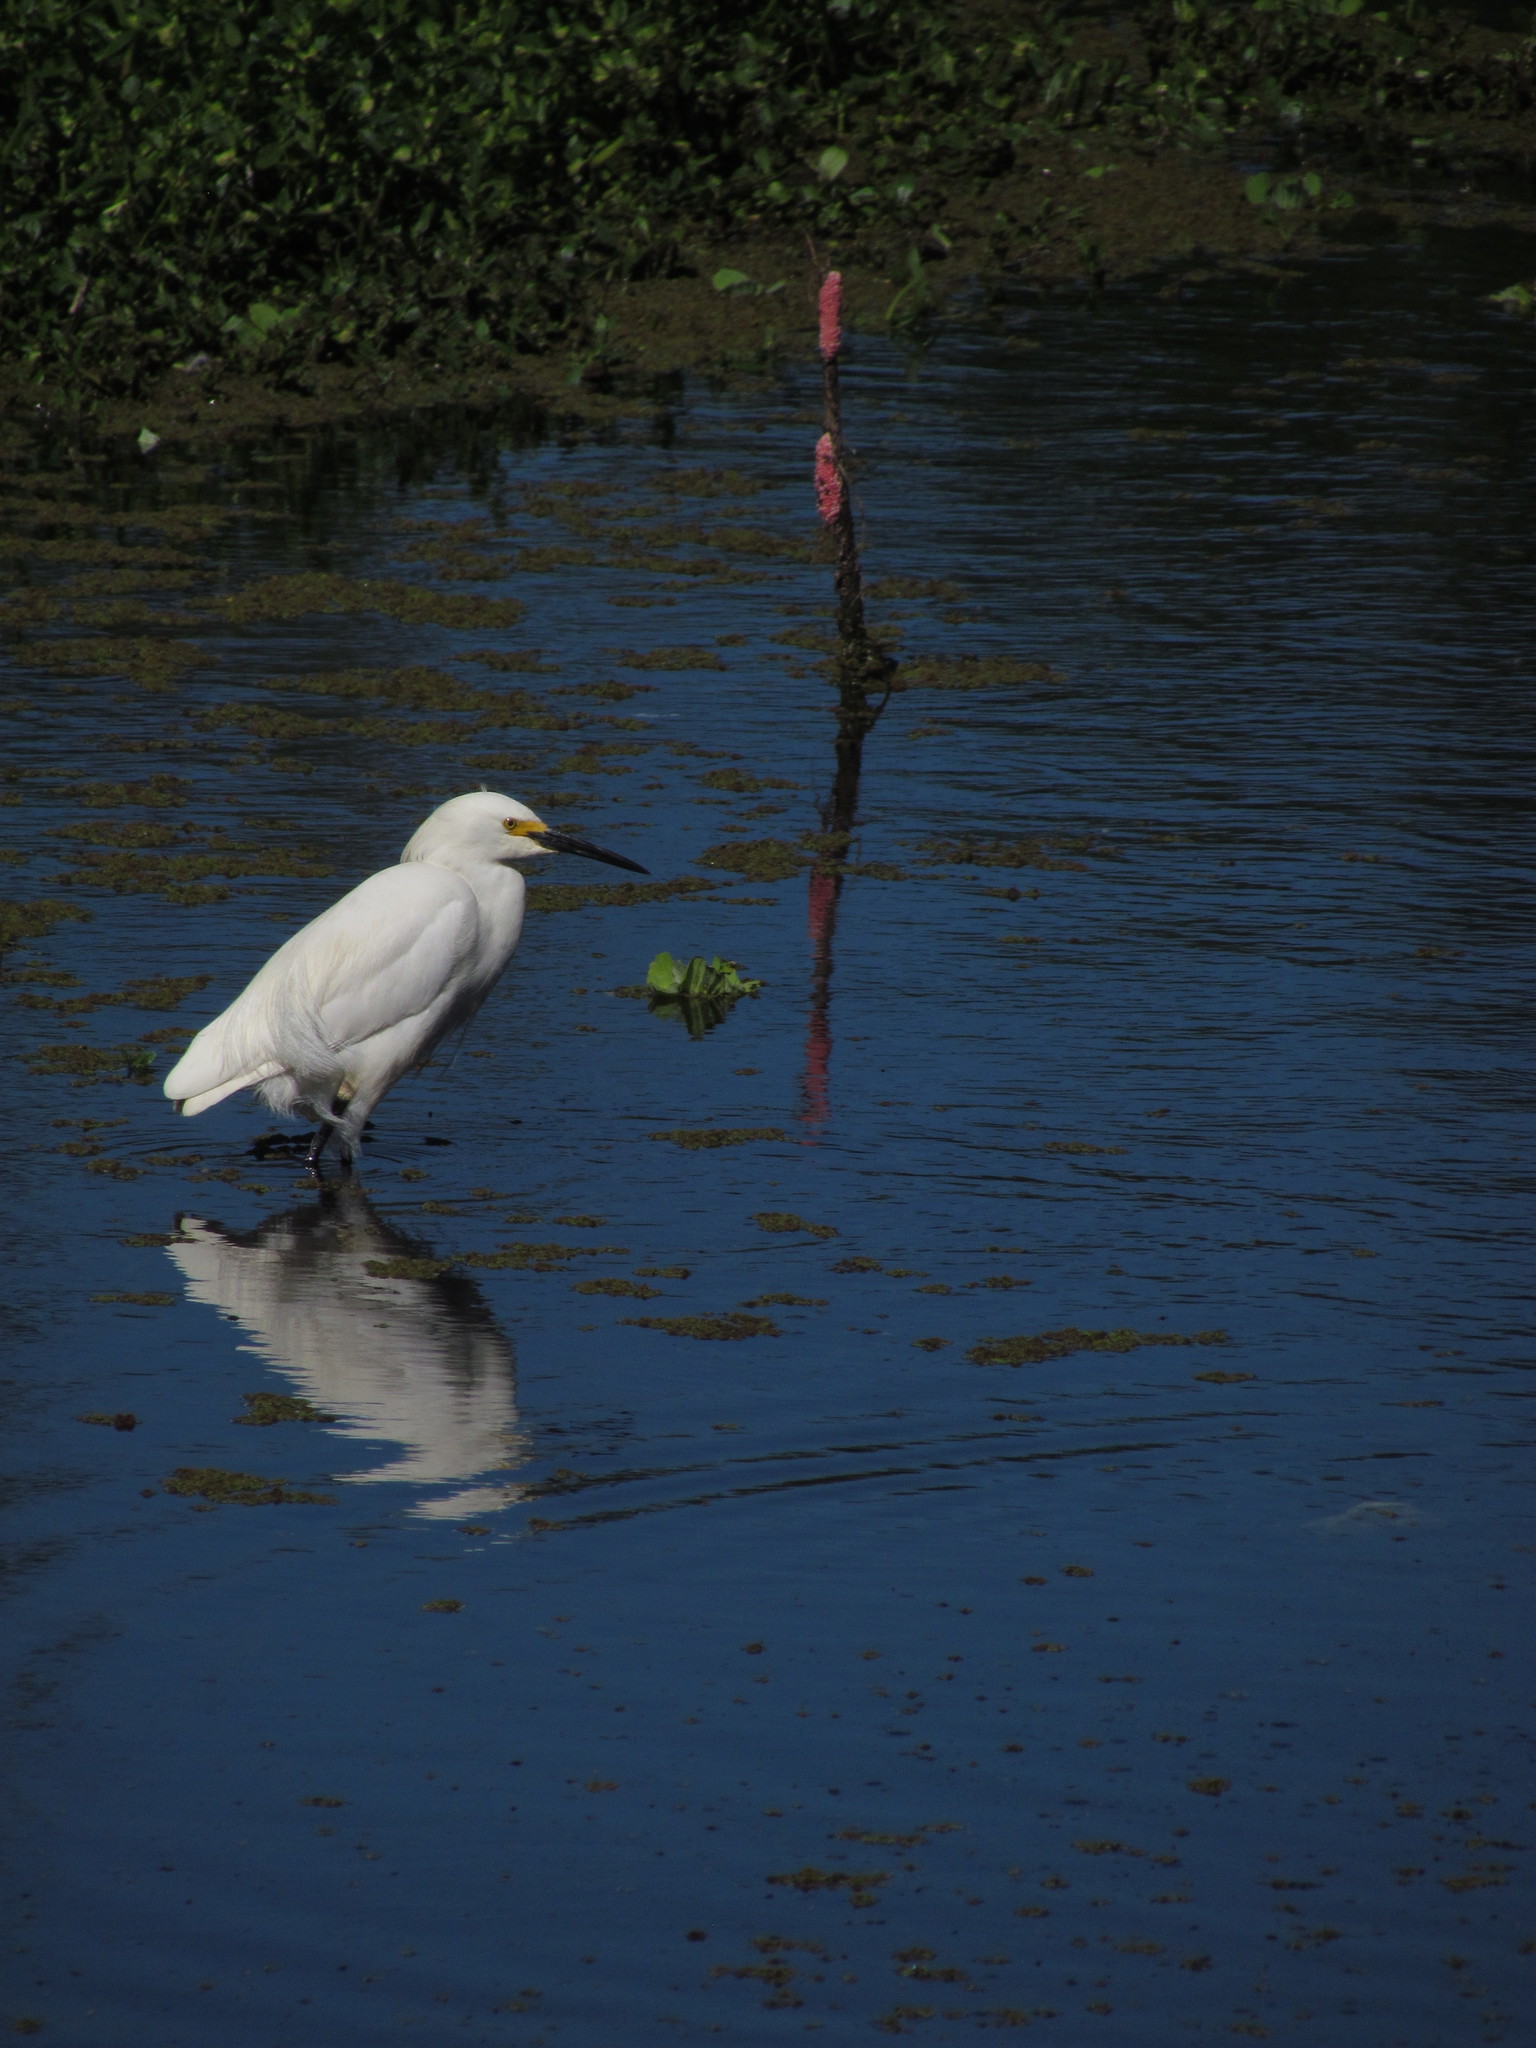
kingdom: Animalia
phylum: Chordata
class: Aves
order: Pelecaniformes
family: Ardeidae
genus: Egretta
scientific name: Egretta thula
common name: Snowy egret
